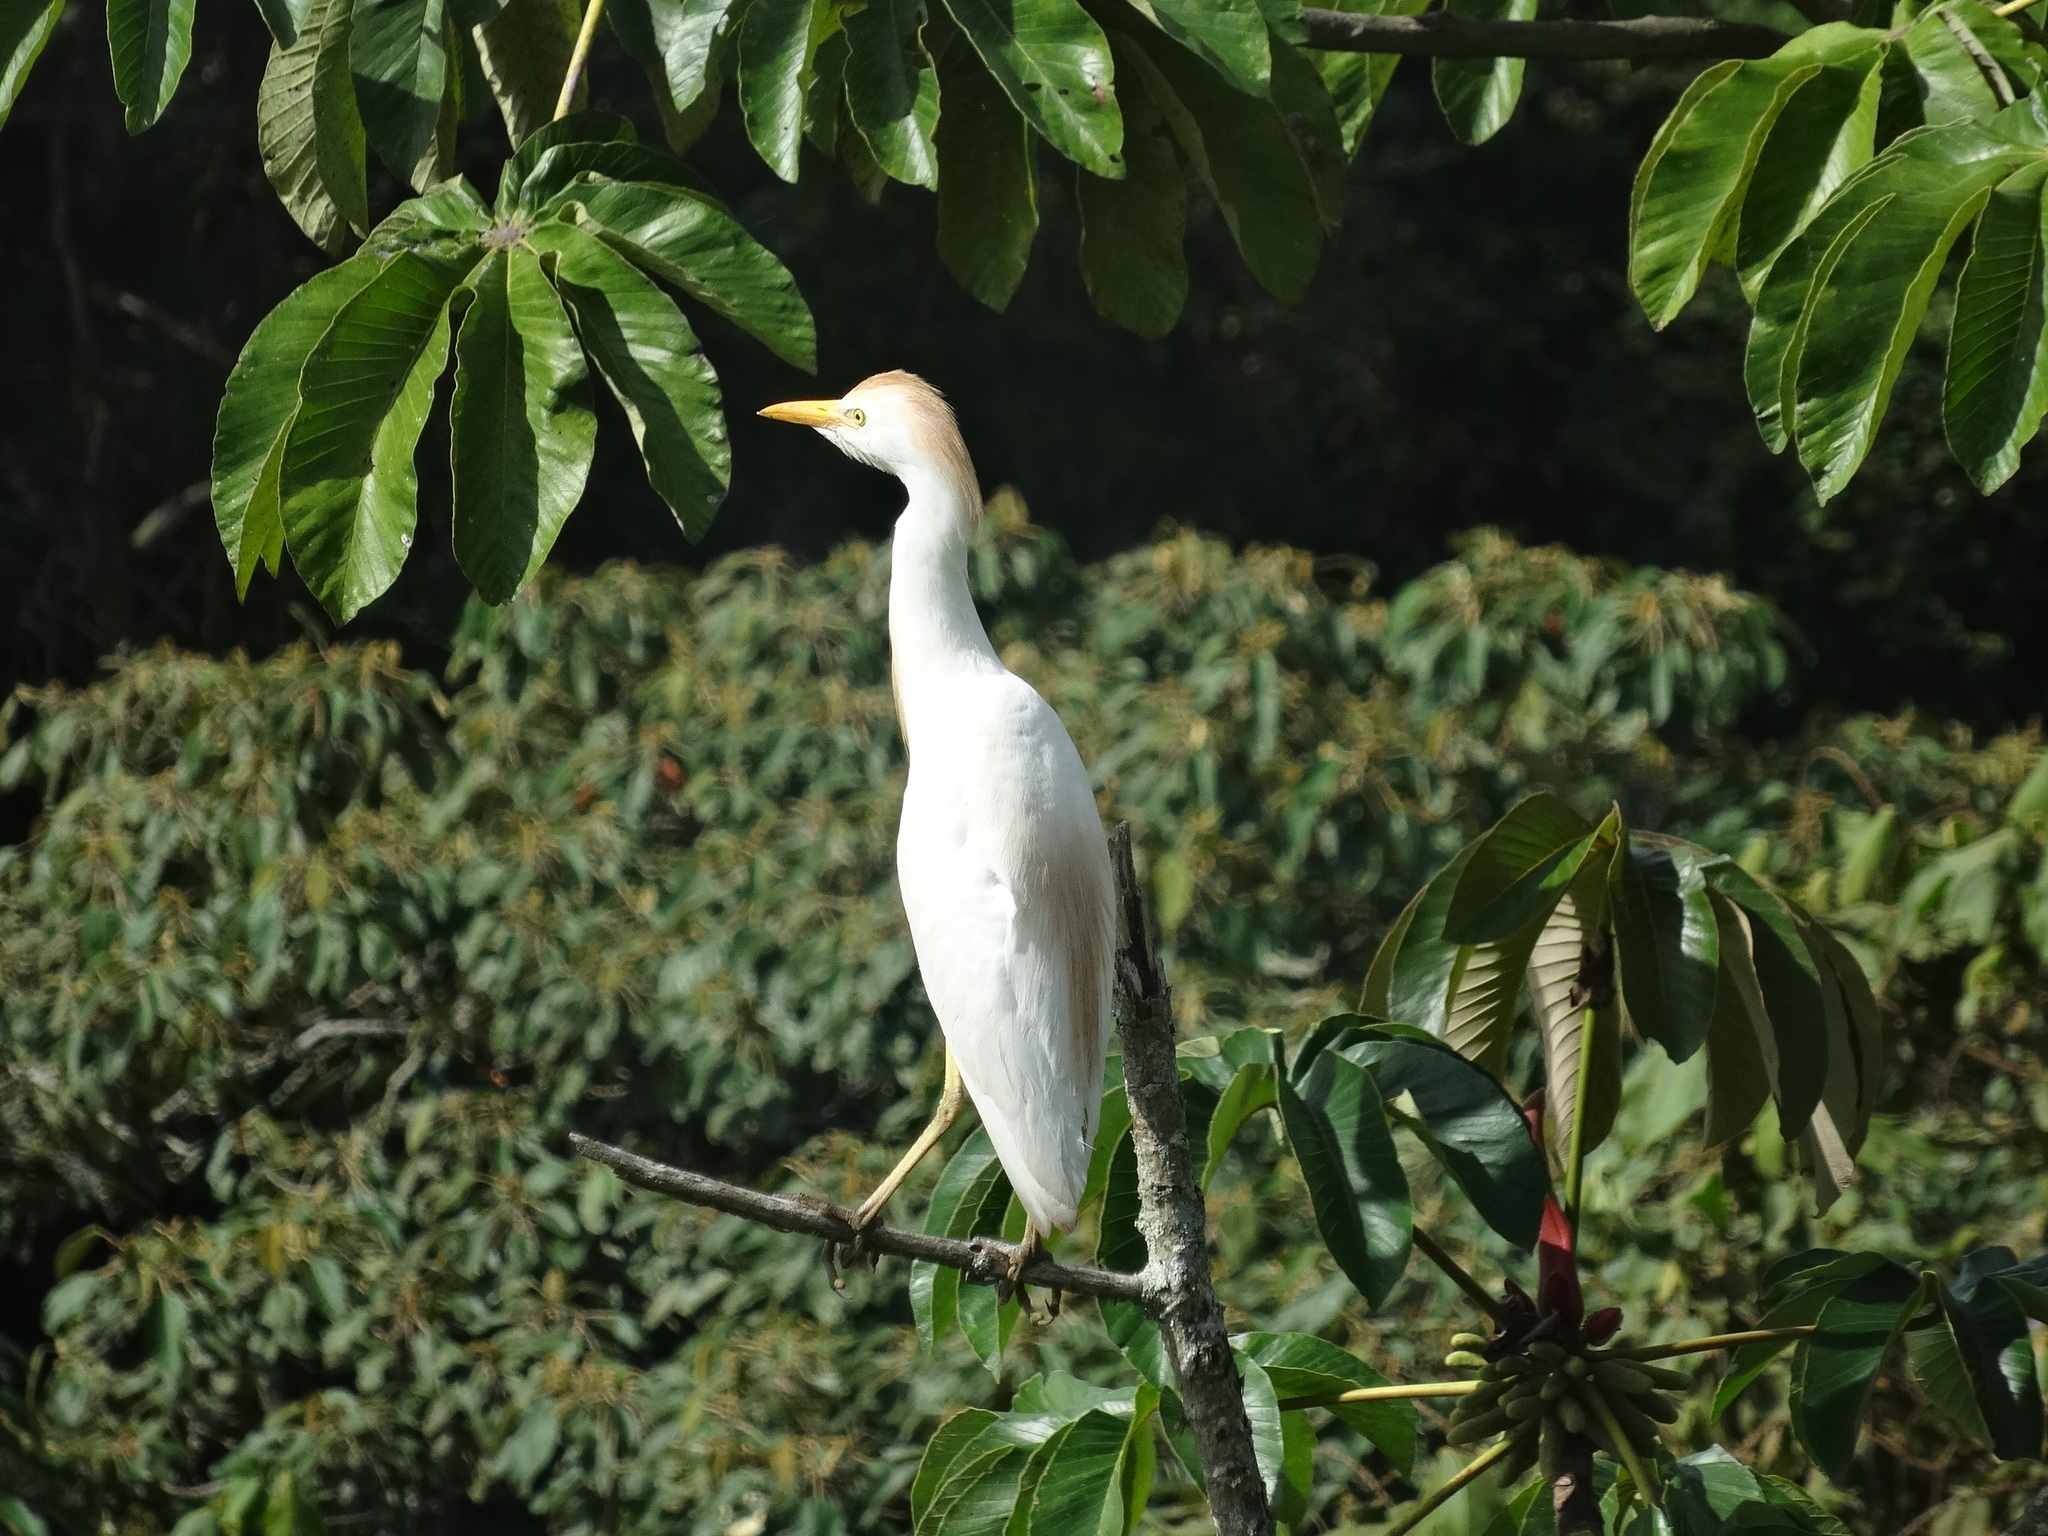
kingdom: Animalia
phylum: Chordata
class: Aves
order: Pelecaniformes
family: Ardeidae
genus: Bubulcus
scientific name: Bubulcus ibis
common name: Cattle egret
